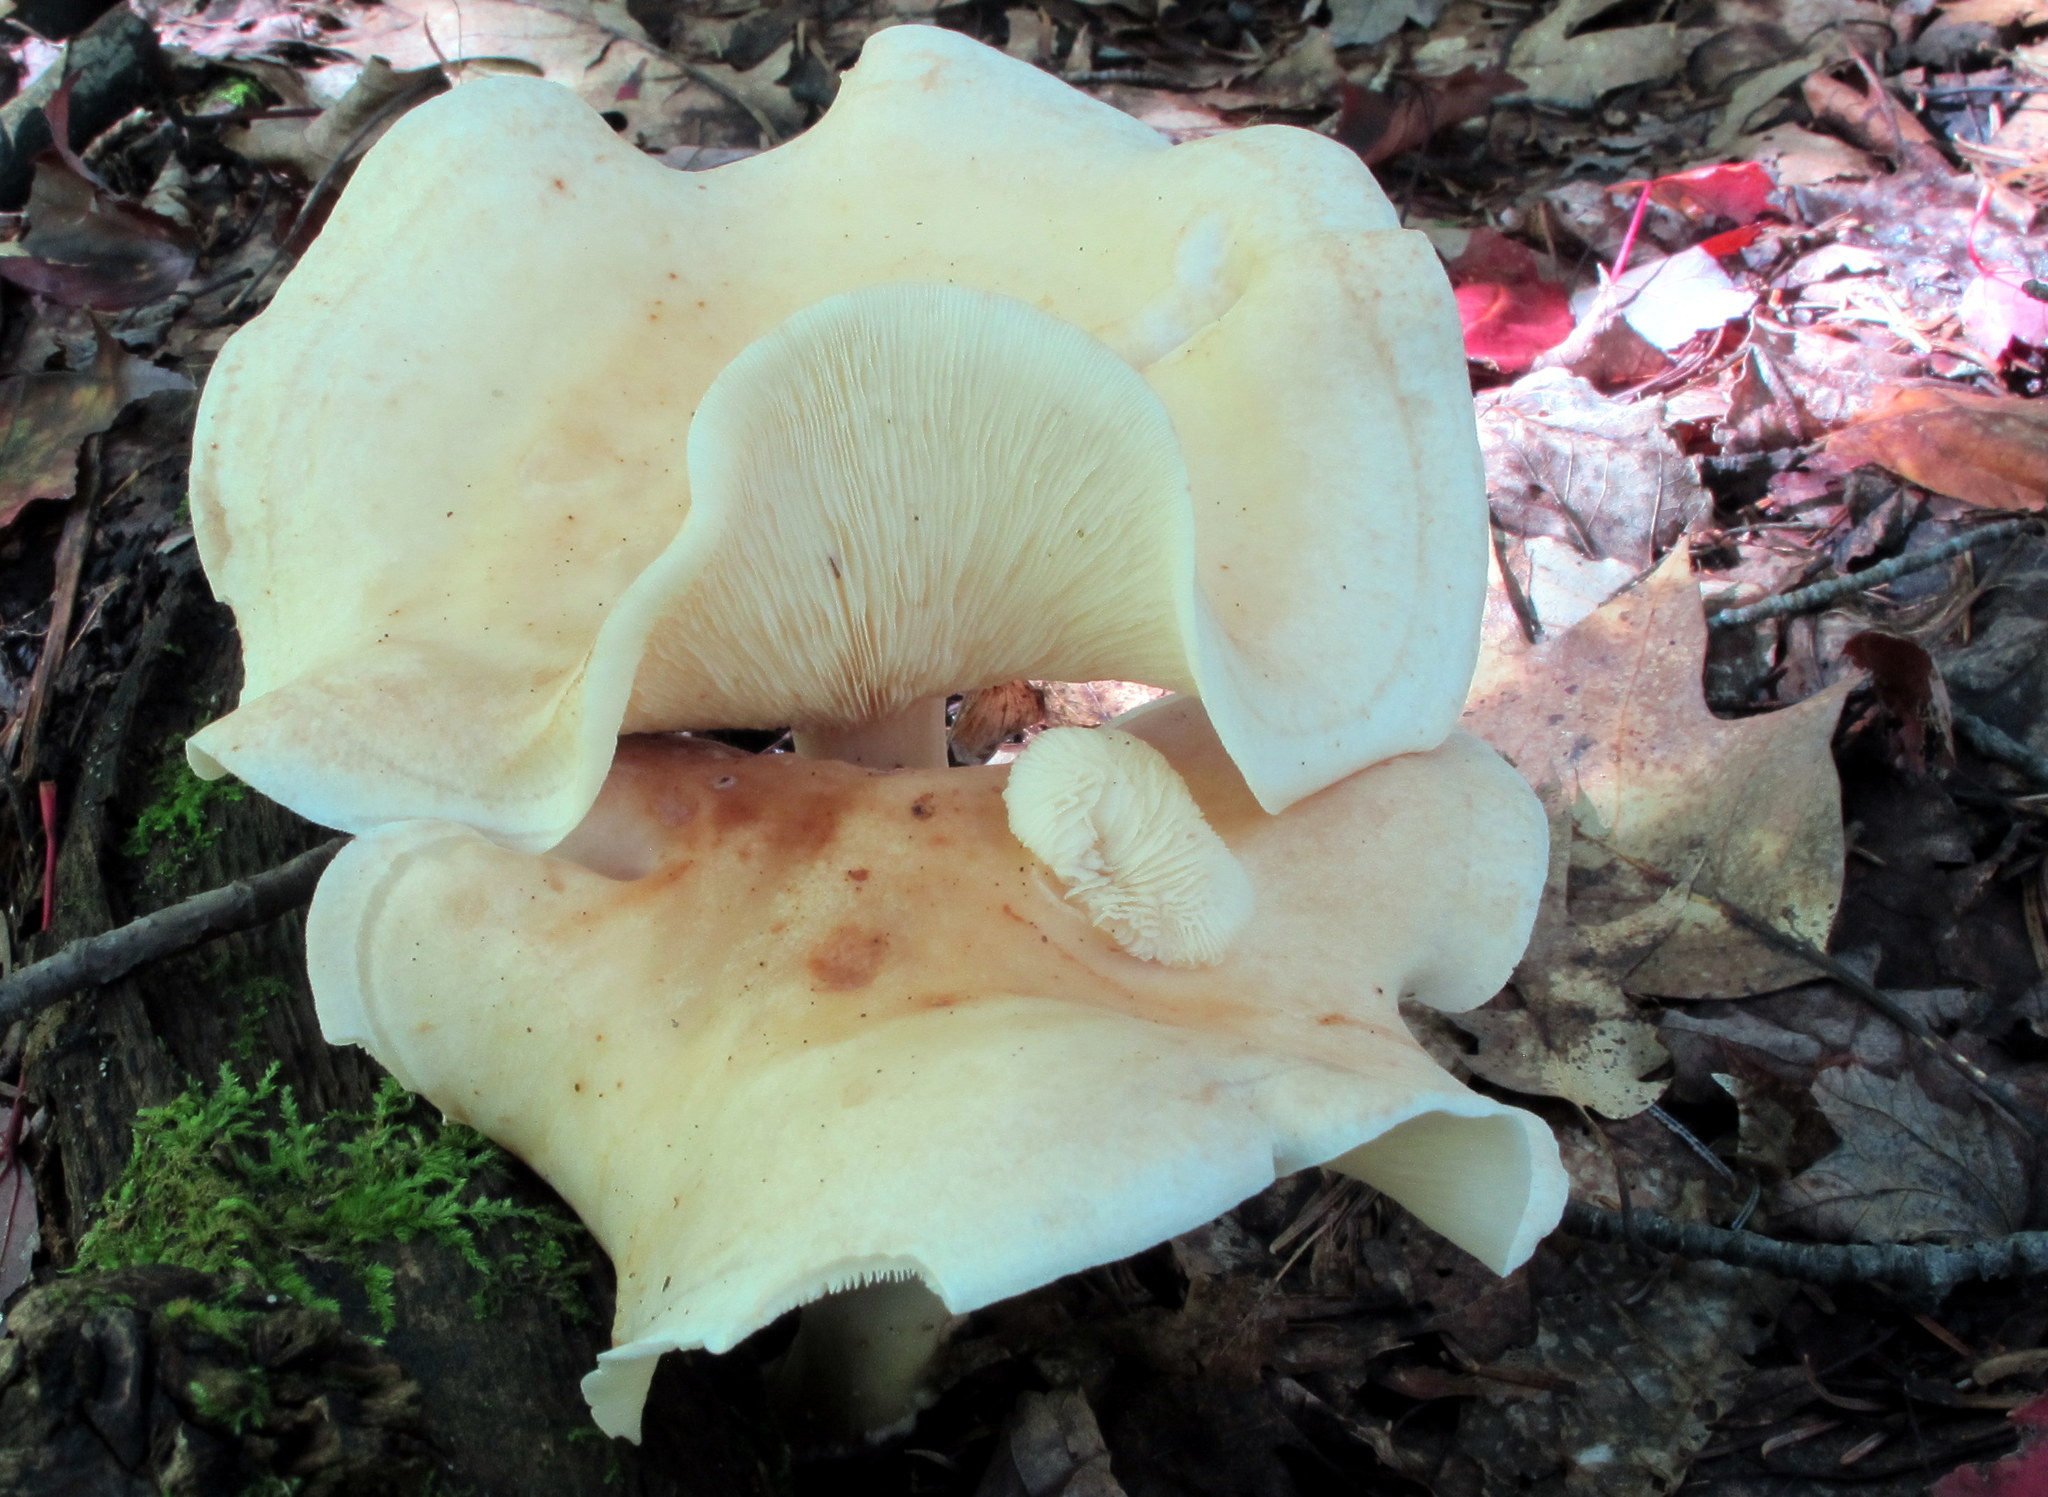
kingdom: Fungi
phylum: Basidiomycota
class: Agaricomycetes
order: Agaricales
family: Omphalotaceae
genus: Rhodocollybia
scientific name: Rhodocollybia maculata
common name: Spotted tough-shank
